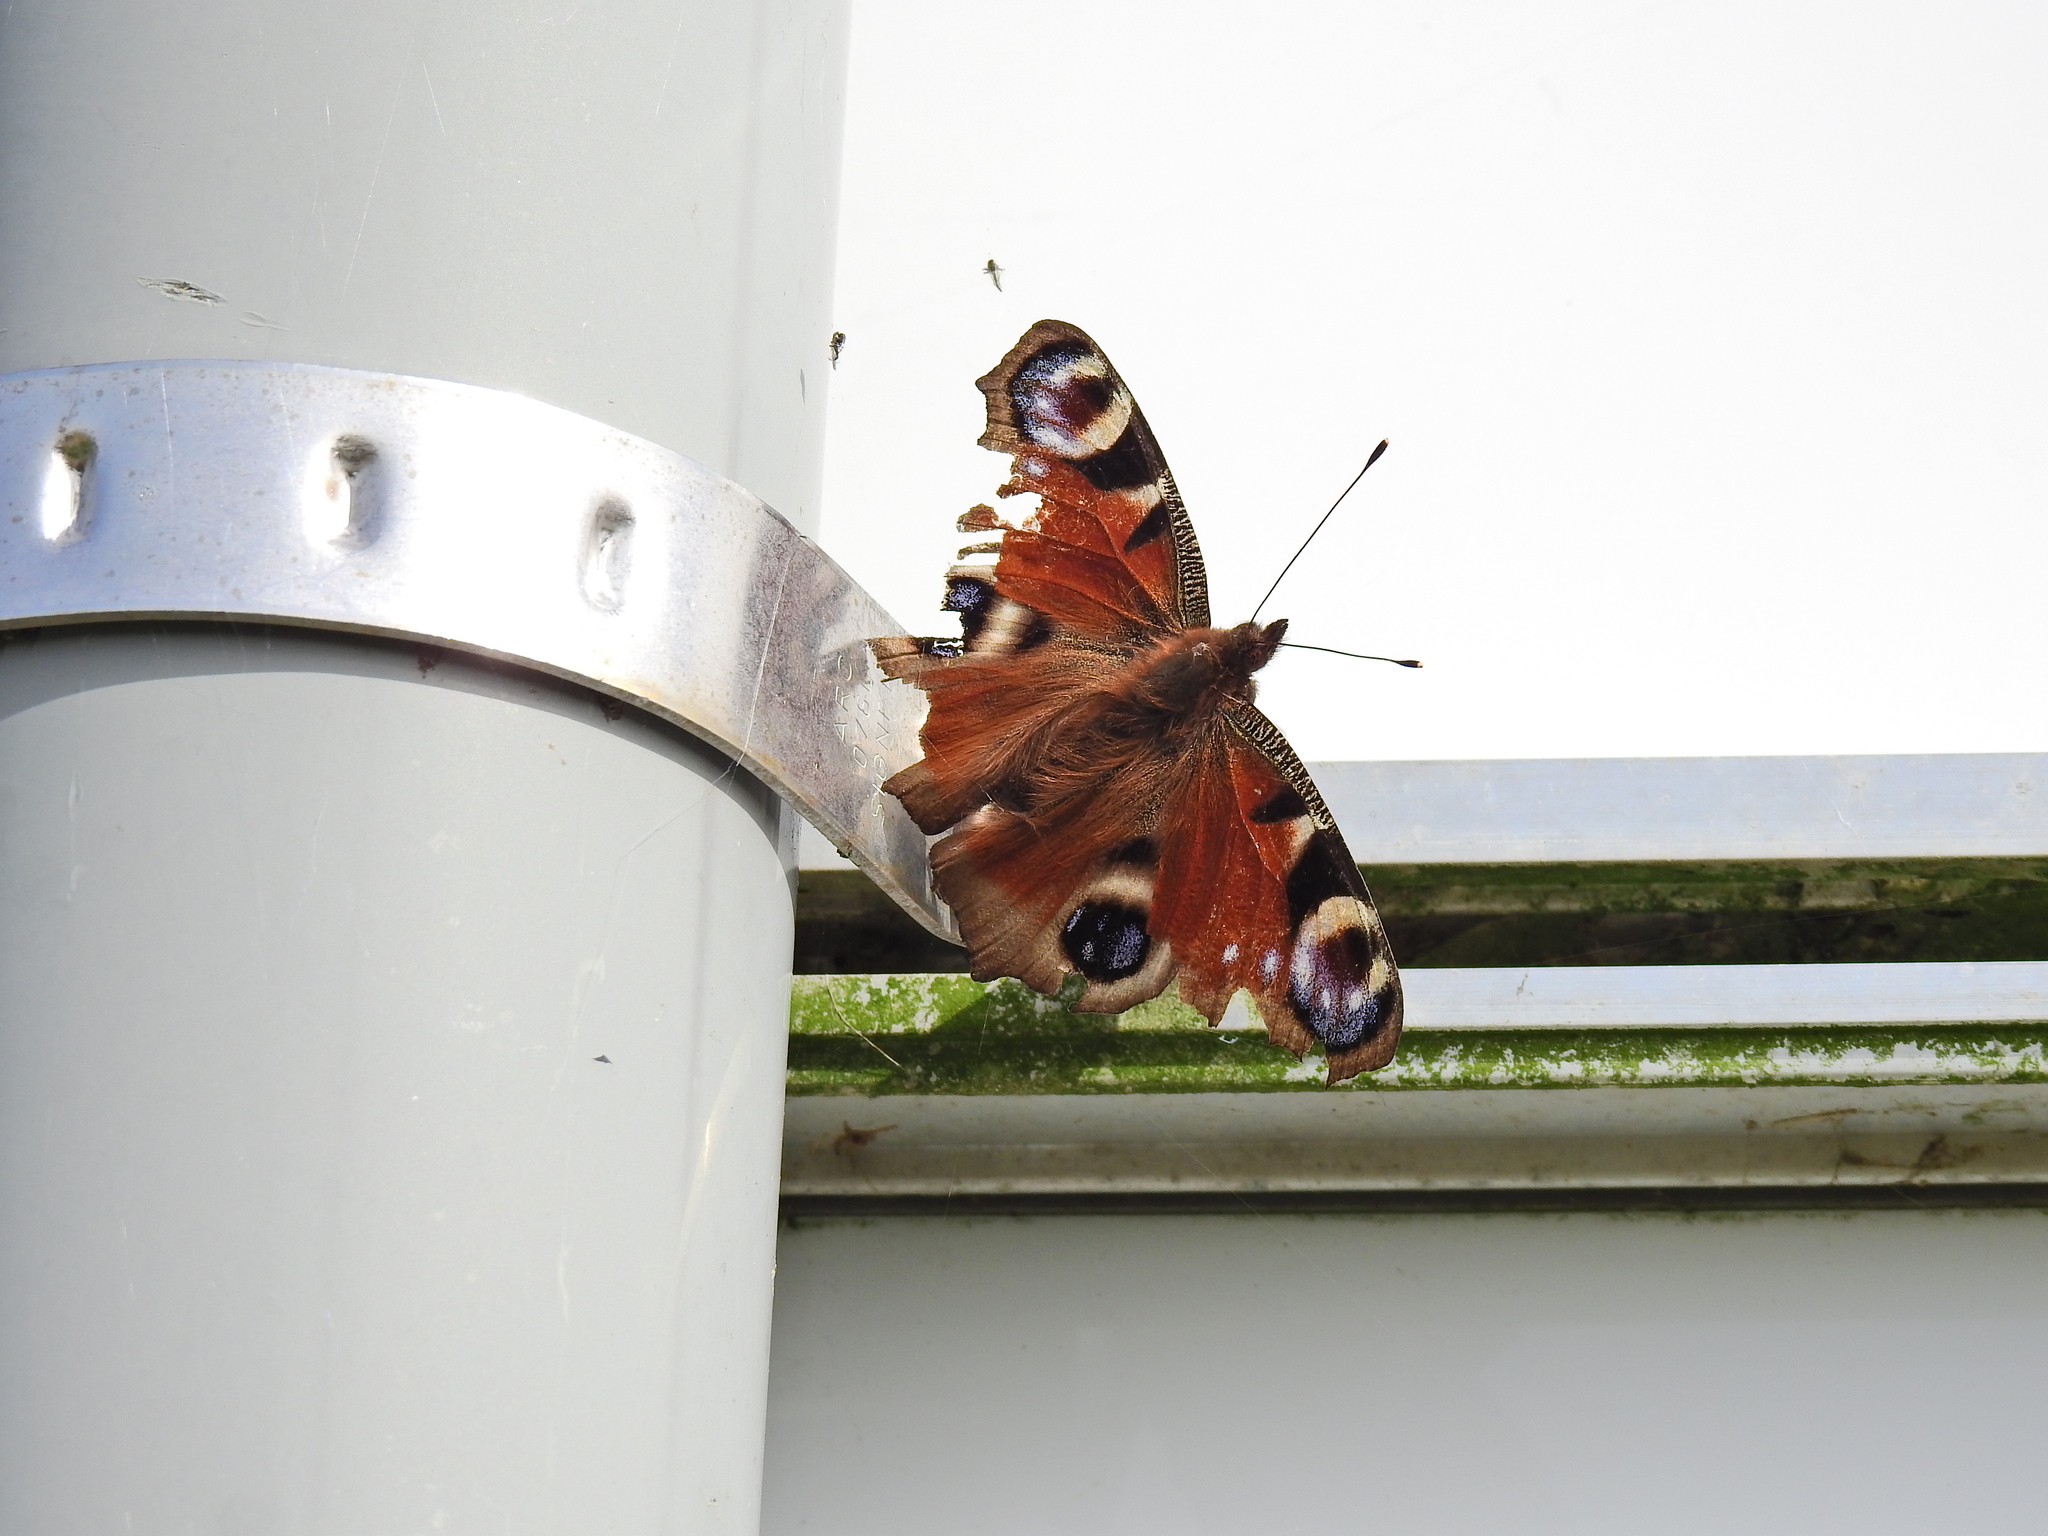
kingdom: Animalia
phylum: Arthropoda
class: Insecta
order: Lepidoptera
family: Nymphalidae
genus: Aglais
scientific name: Aglais io
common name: Peacock
